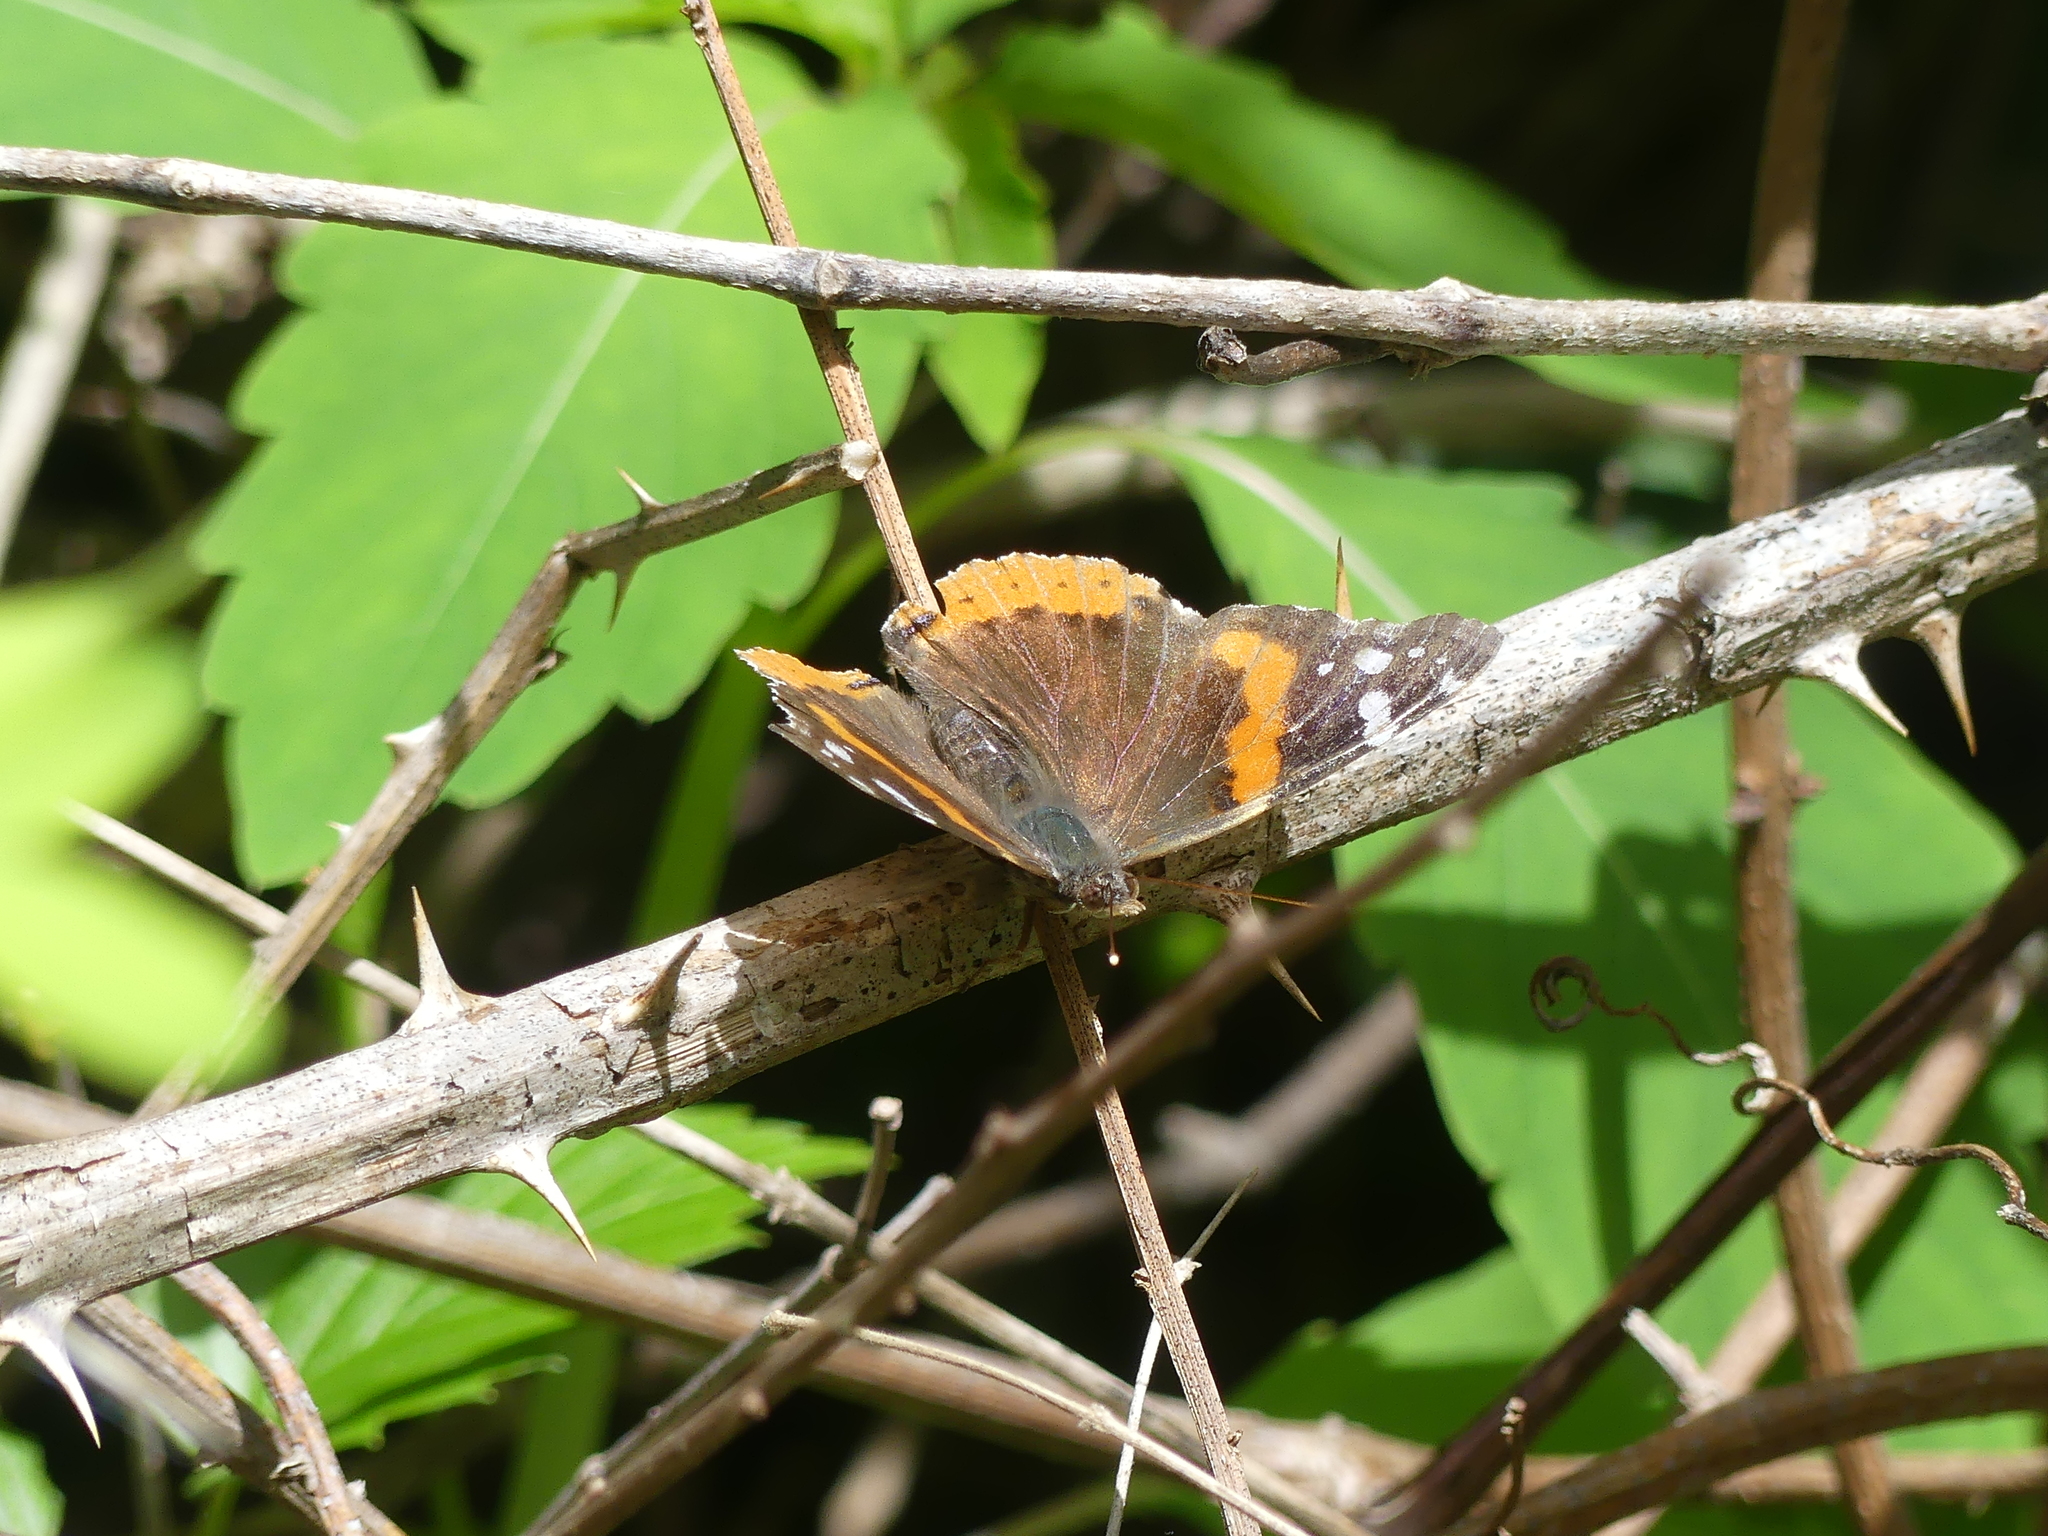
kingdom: Animalia
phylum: Arthropoda
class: Insecta
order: Lepidoptera
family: Nymphalidae
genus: Vanessa
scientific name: Vanessa atalanta
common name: Red admiral
